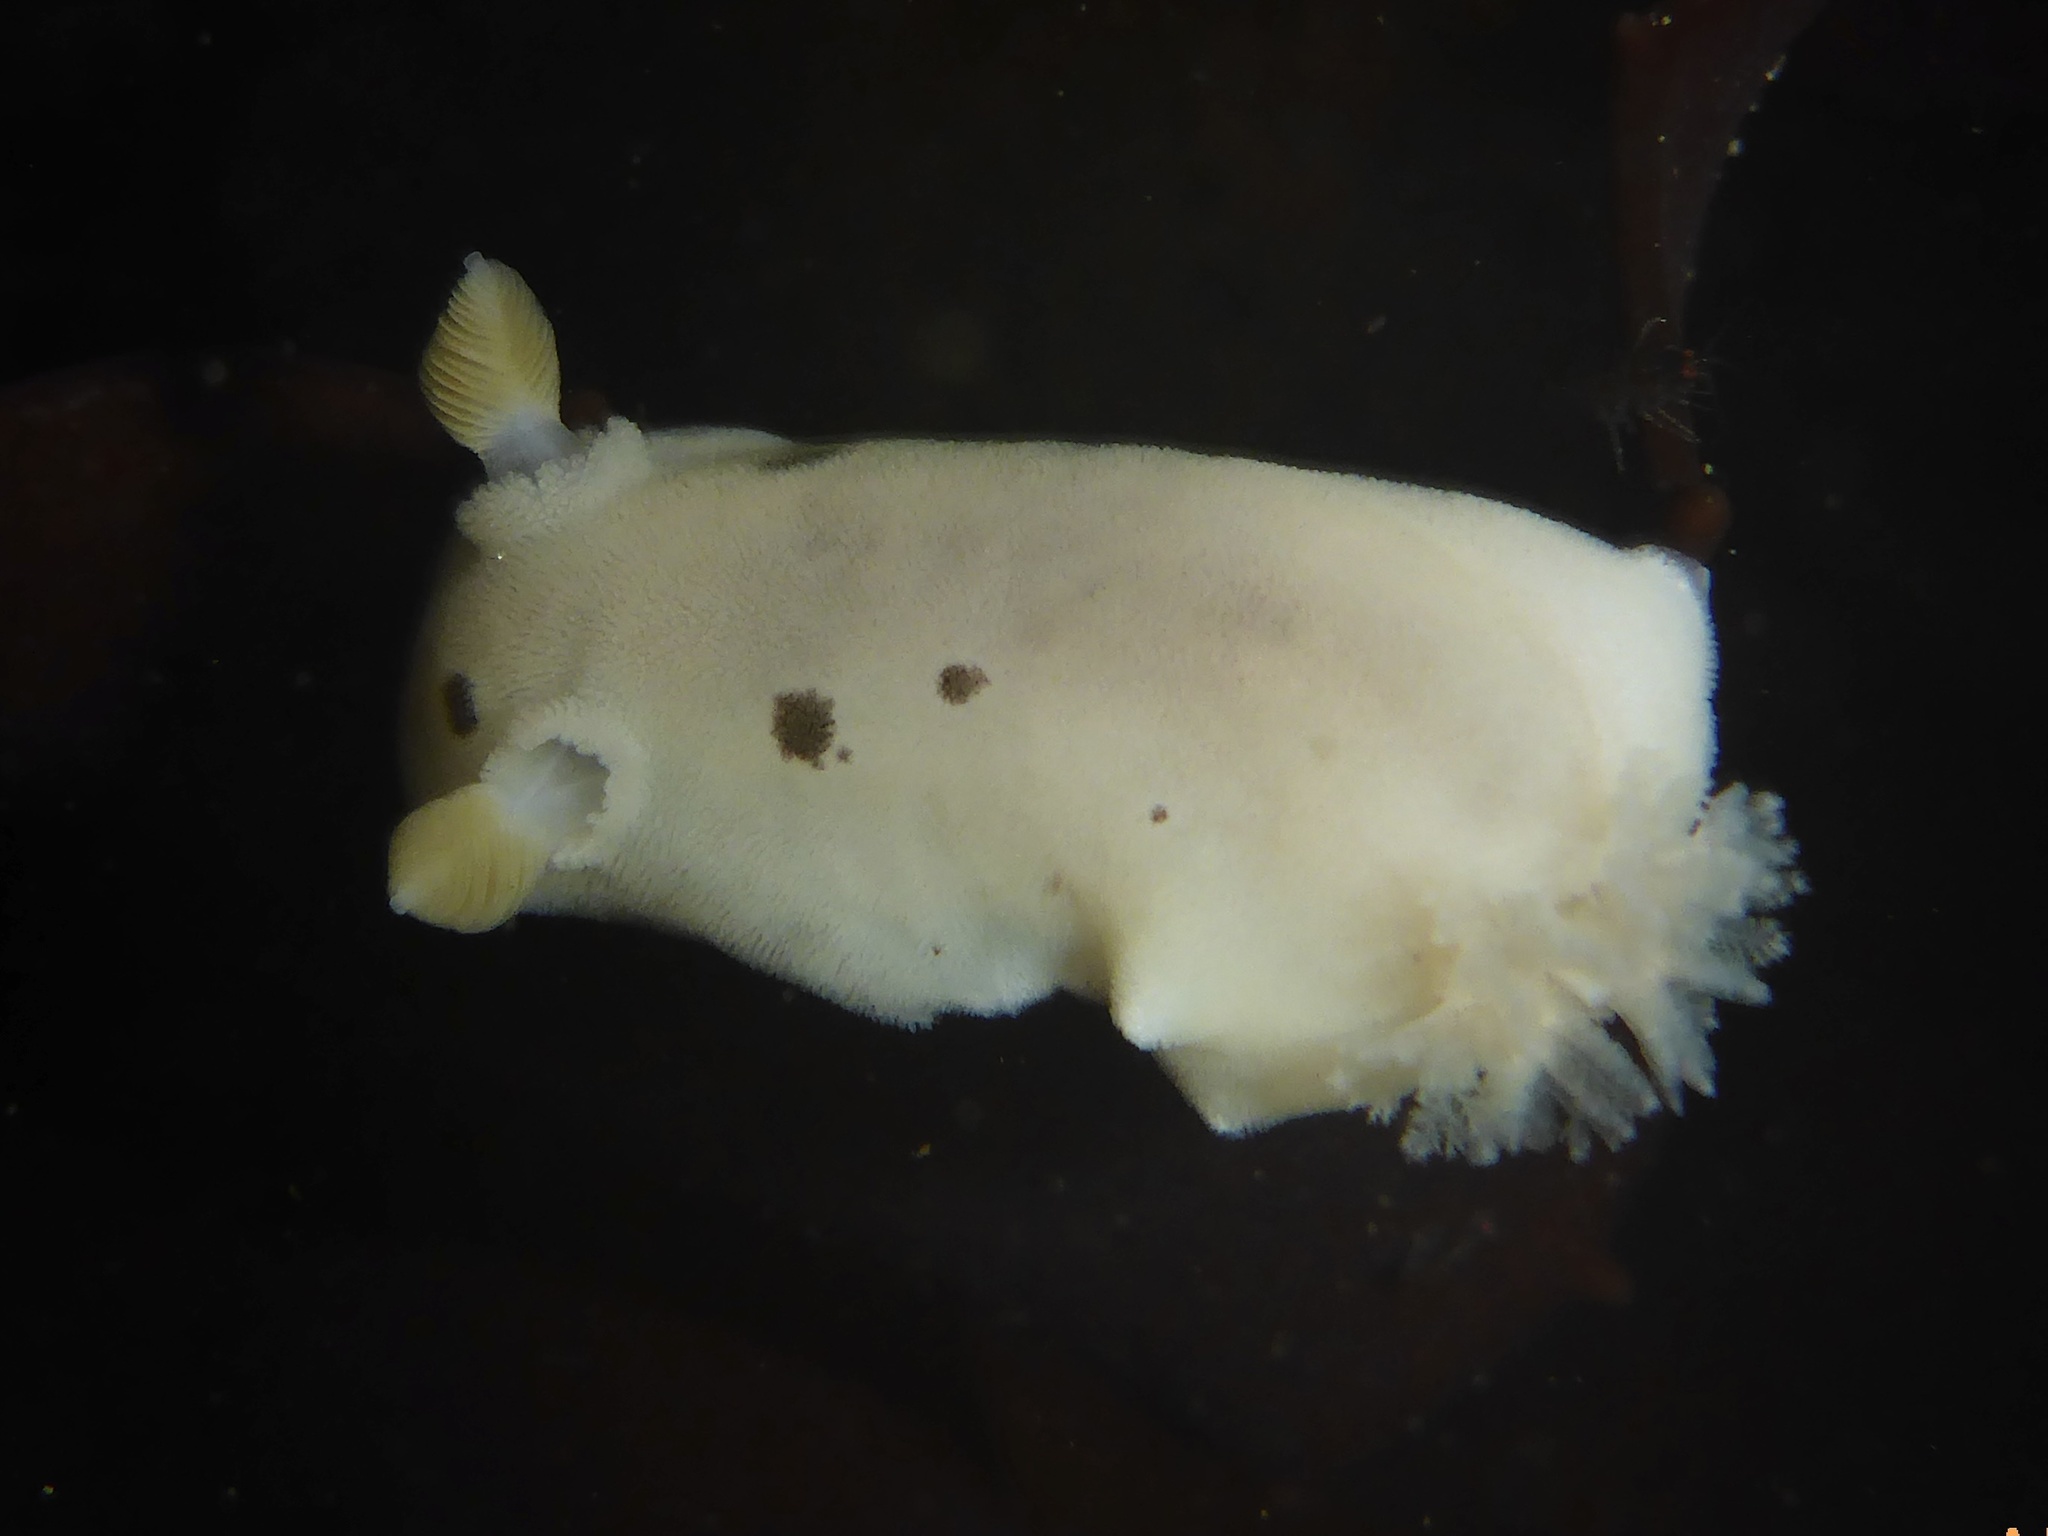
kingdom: Animalia
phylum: Mollusca
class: Gastropoda
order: Nudibranchia
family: Discodorididae
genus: Diaulula
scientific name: Diaulula sandiegensis
